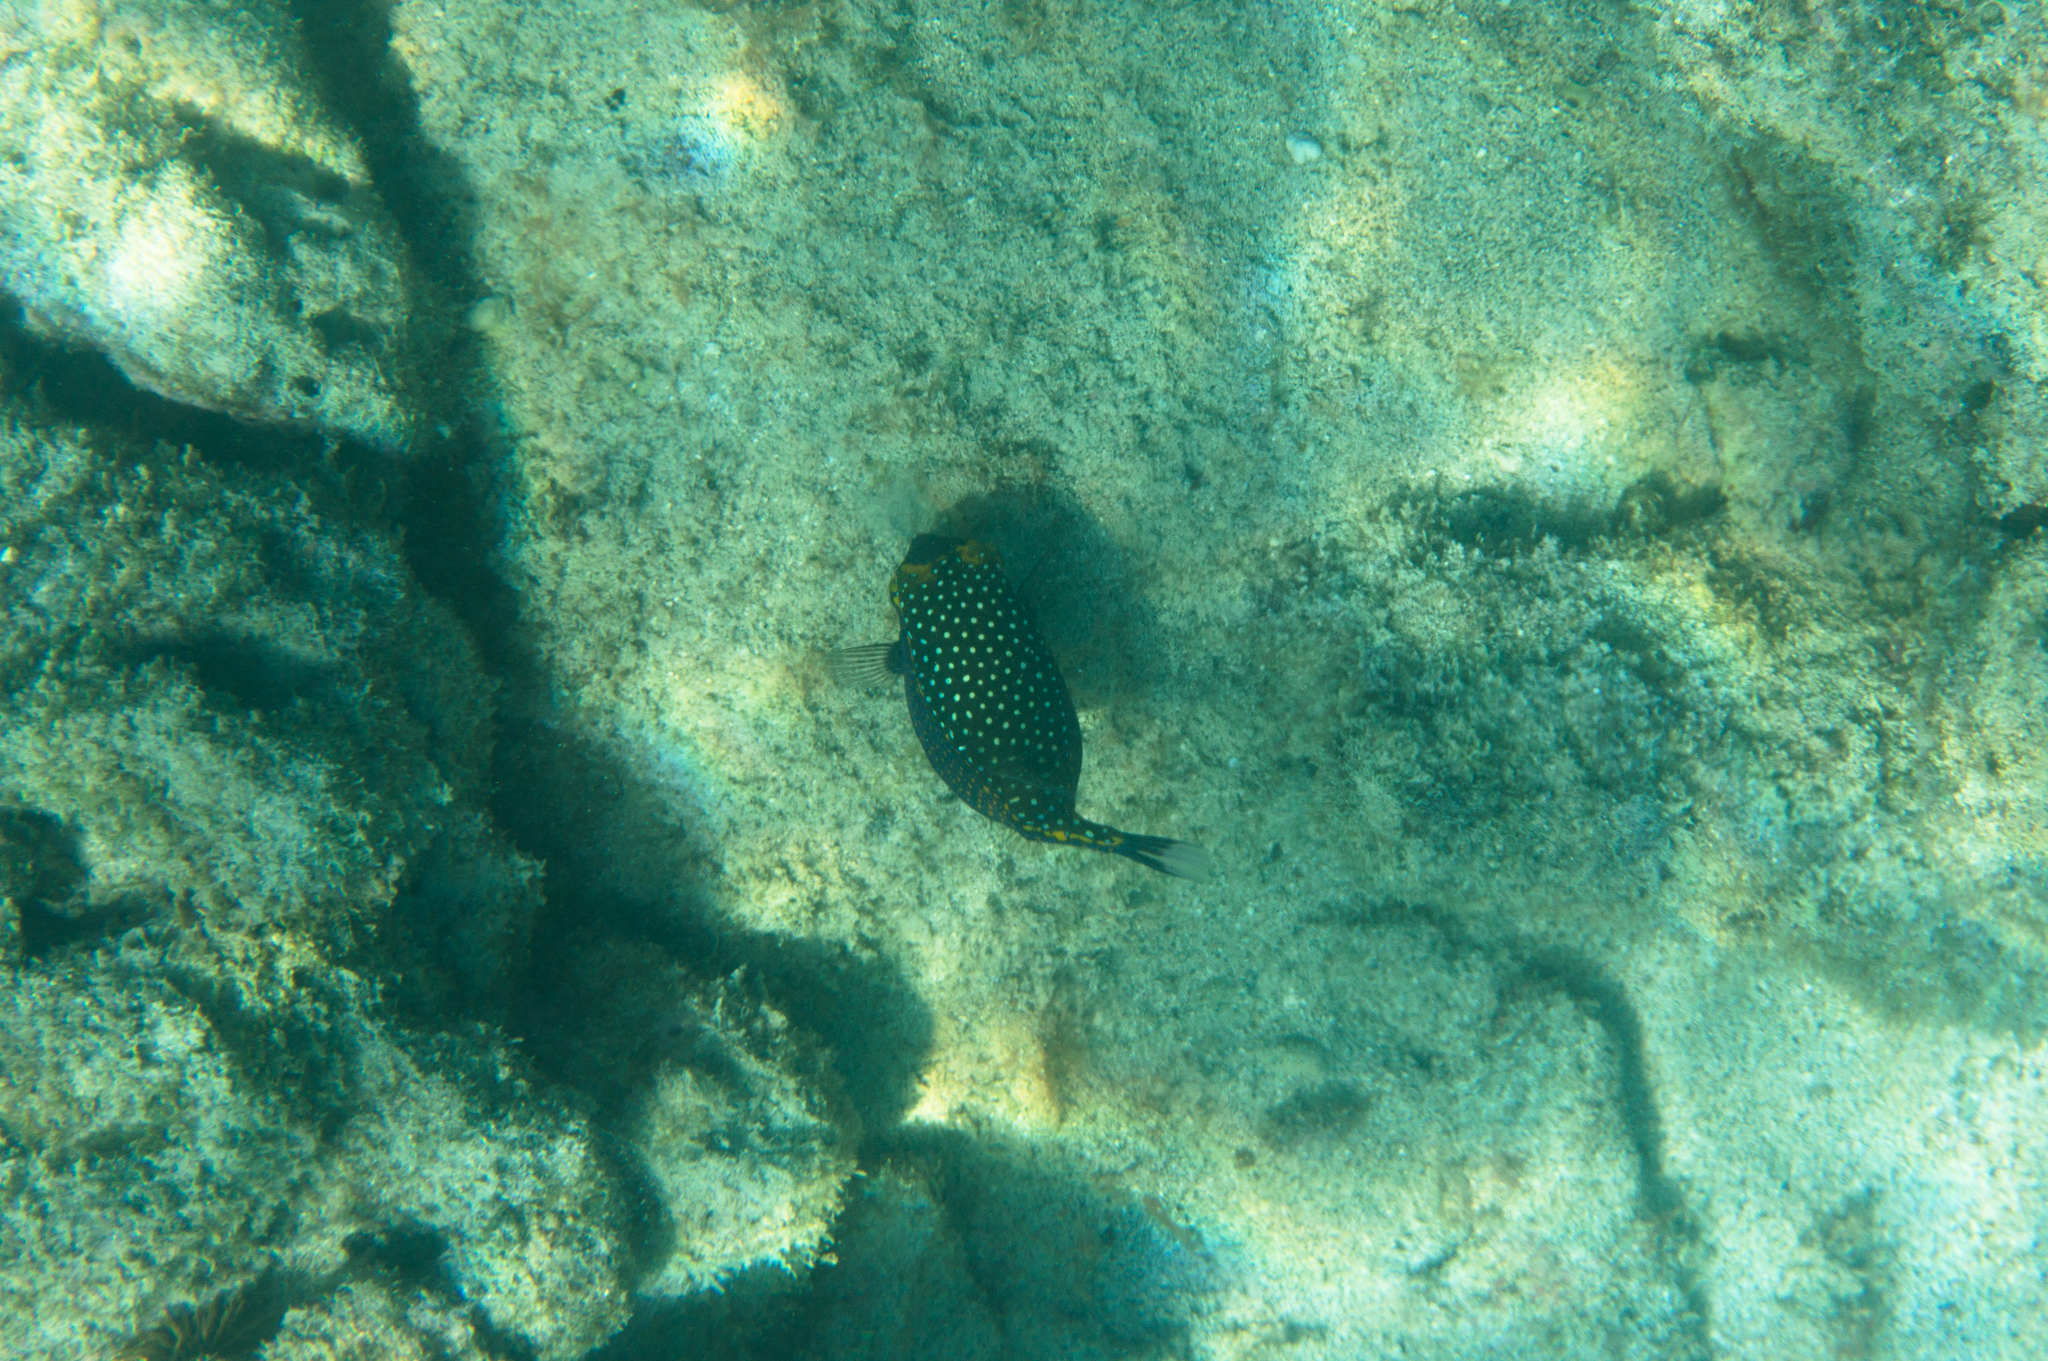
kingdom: Animalia
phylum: Chordata
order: Tetraodontiformes
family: Ostraciidae
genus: Ostracion
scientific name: Ostracion meleagris
